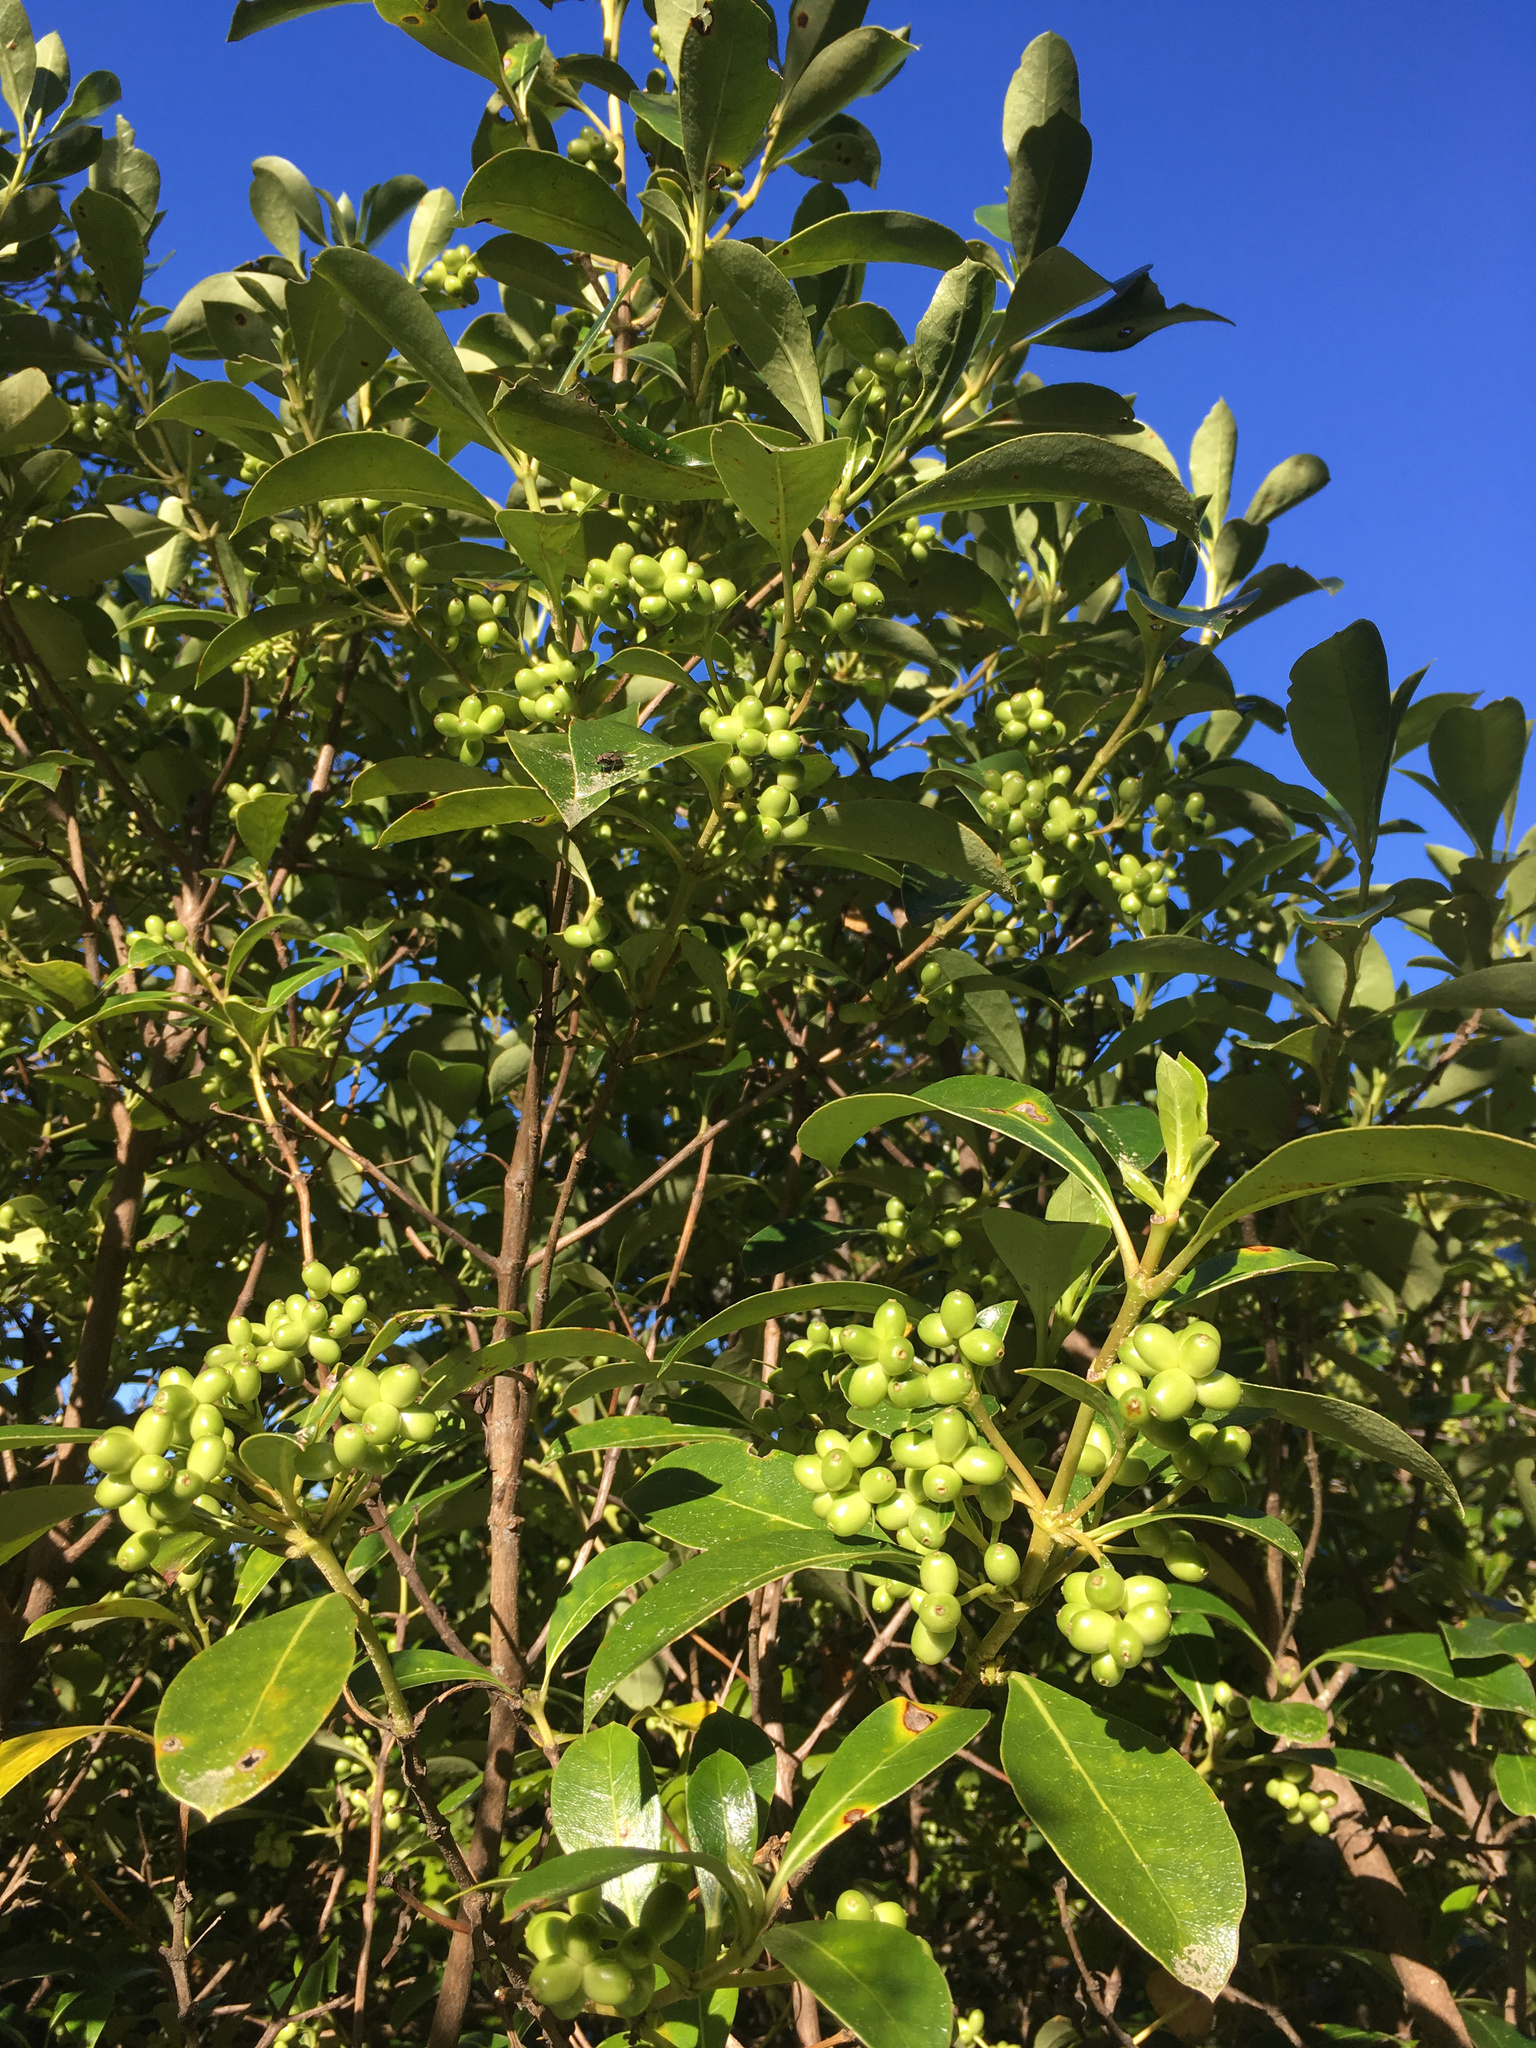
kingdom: Plantae
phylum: Tracheophyta
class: Magnoliopsida
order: Gentianales
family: Rubiaceae
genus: Coprosma
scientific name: Coprosma lucida
